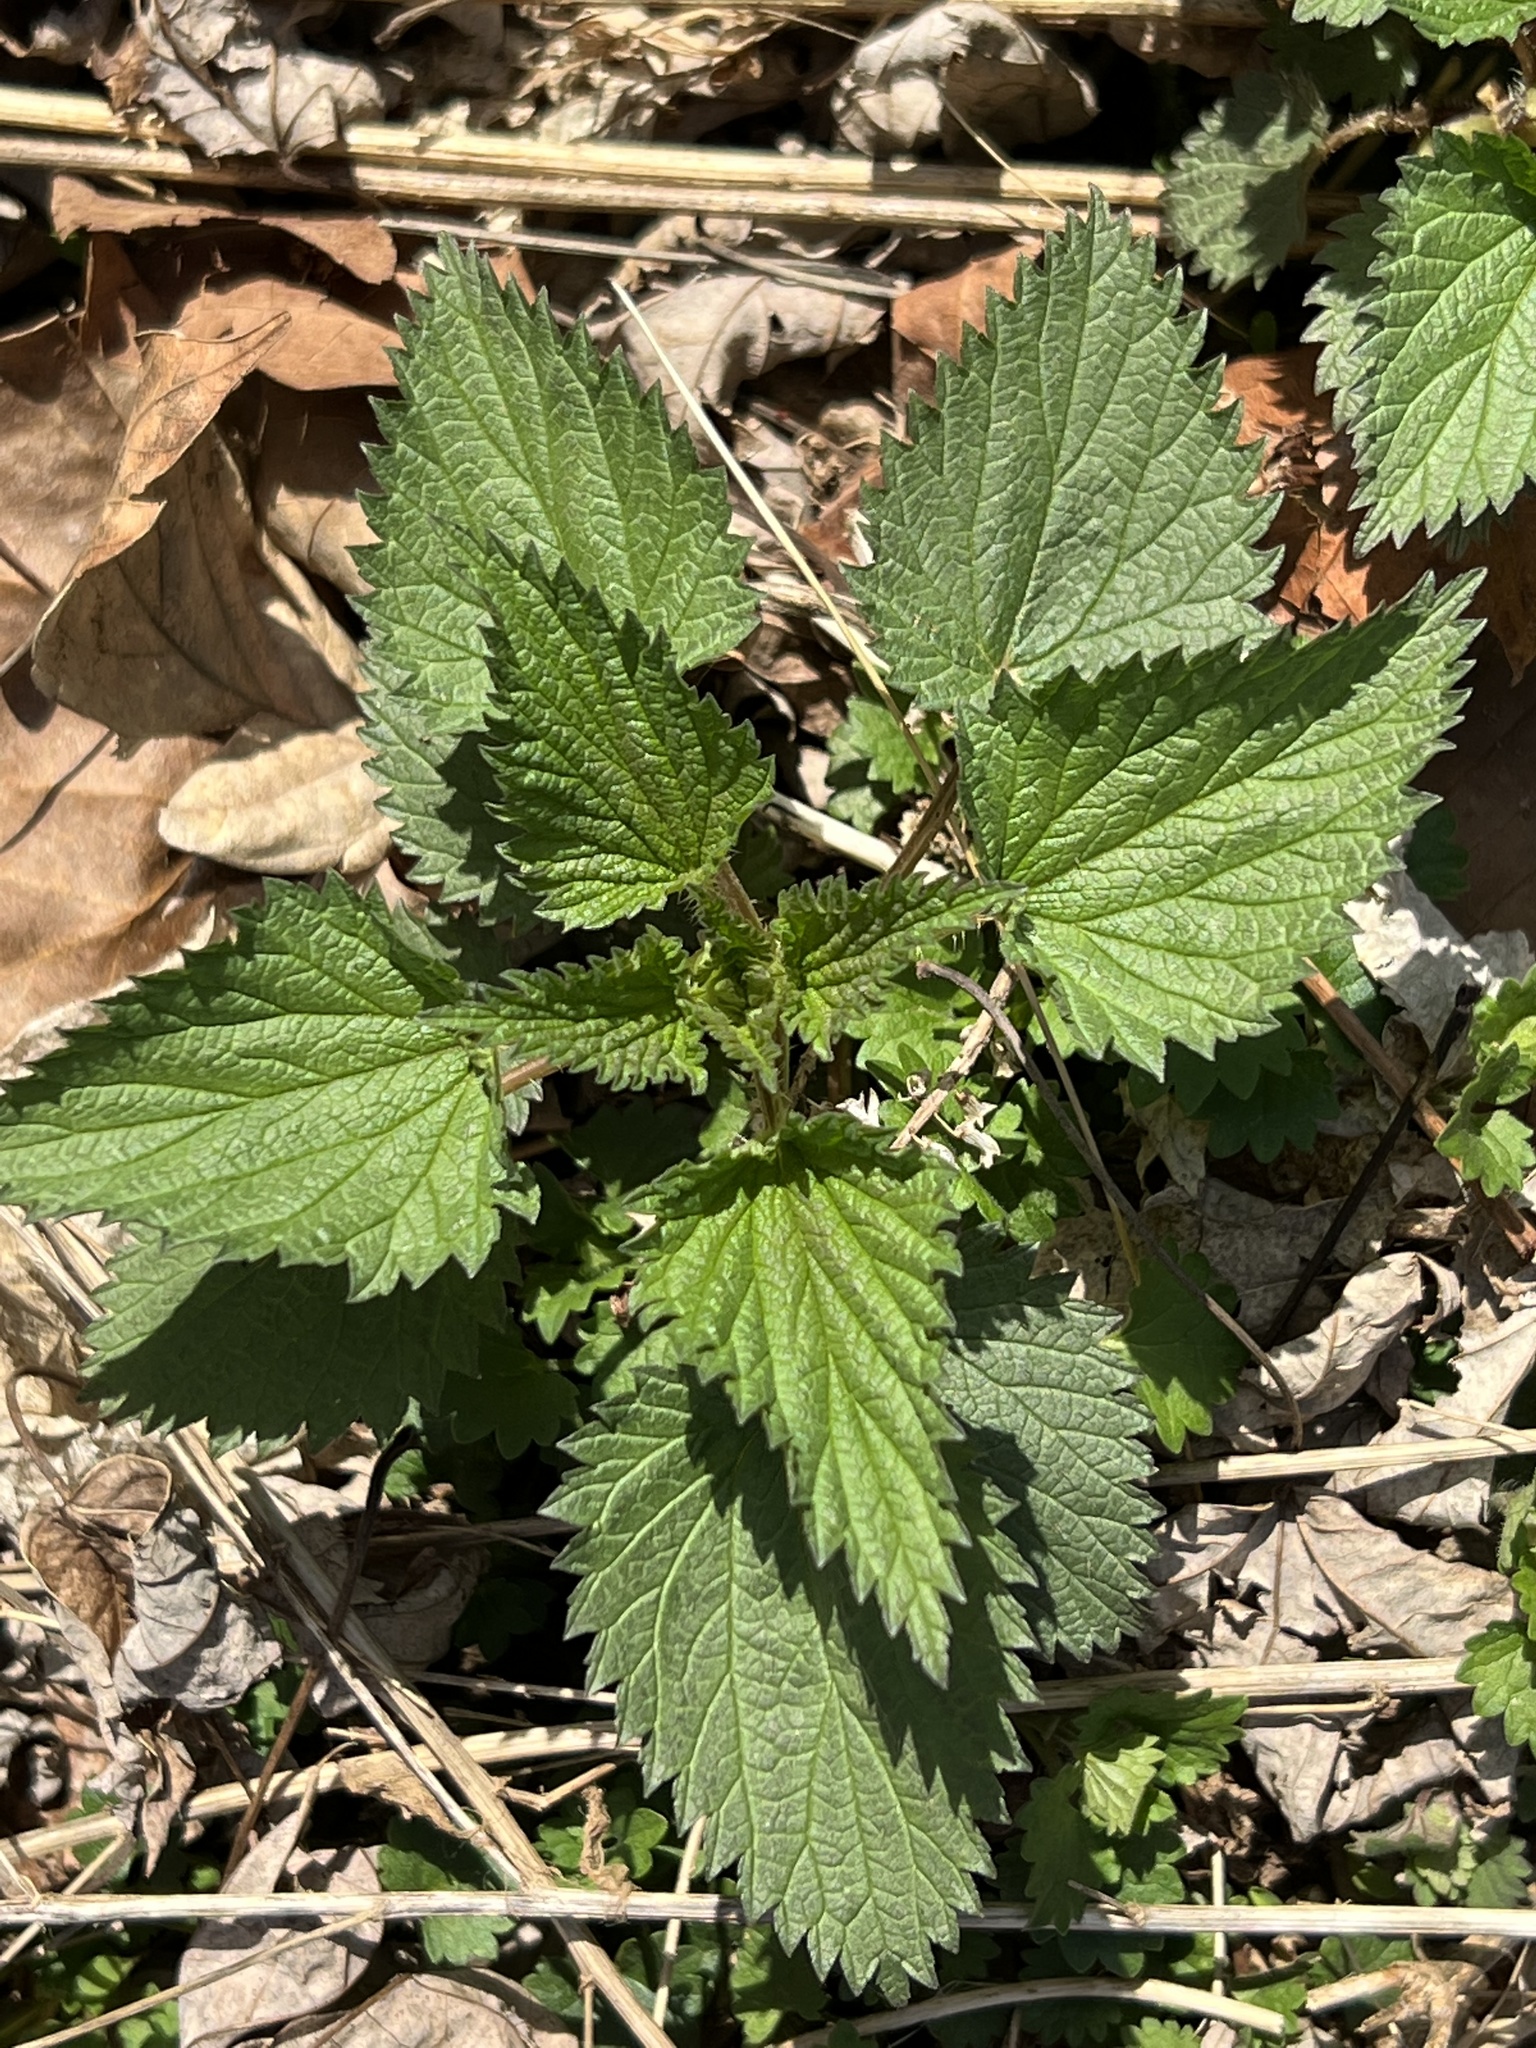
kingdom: Plantae
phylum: Tracheophyta
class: Magnoliopsida
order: Rosales
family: Urticaceae
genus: Urtica
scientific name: Urtica dioica
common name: Common nettle
